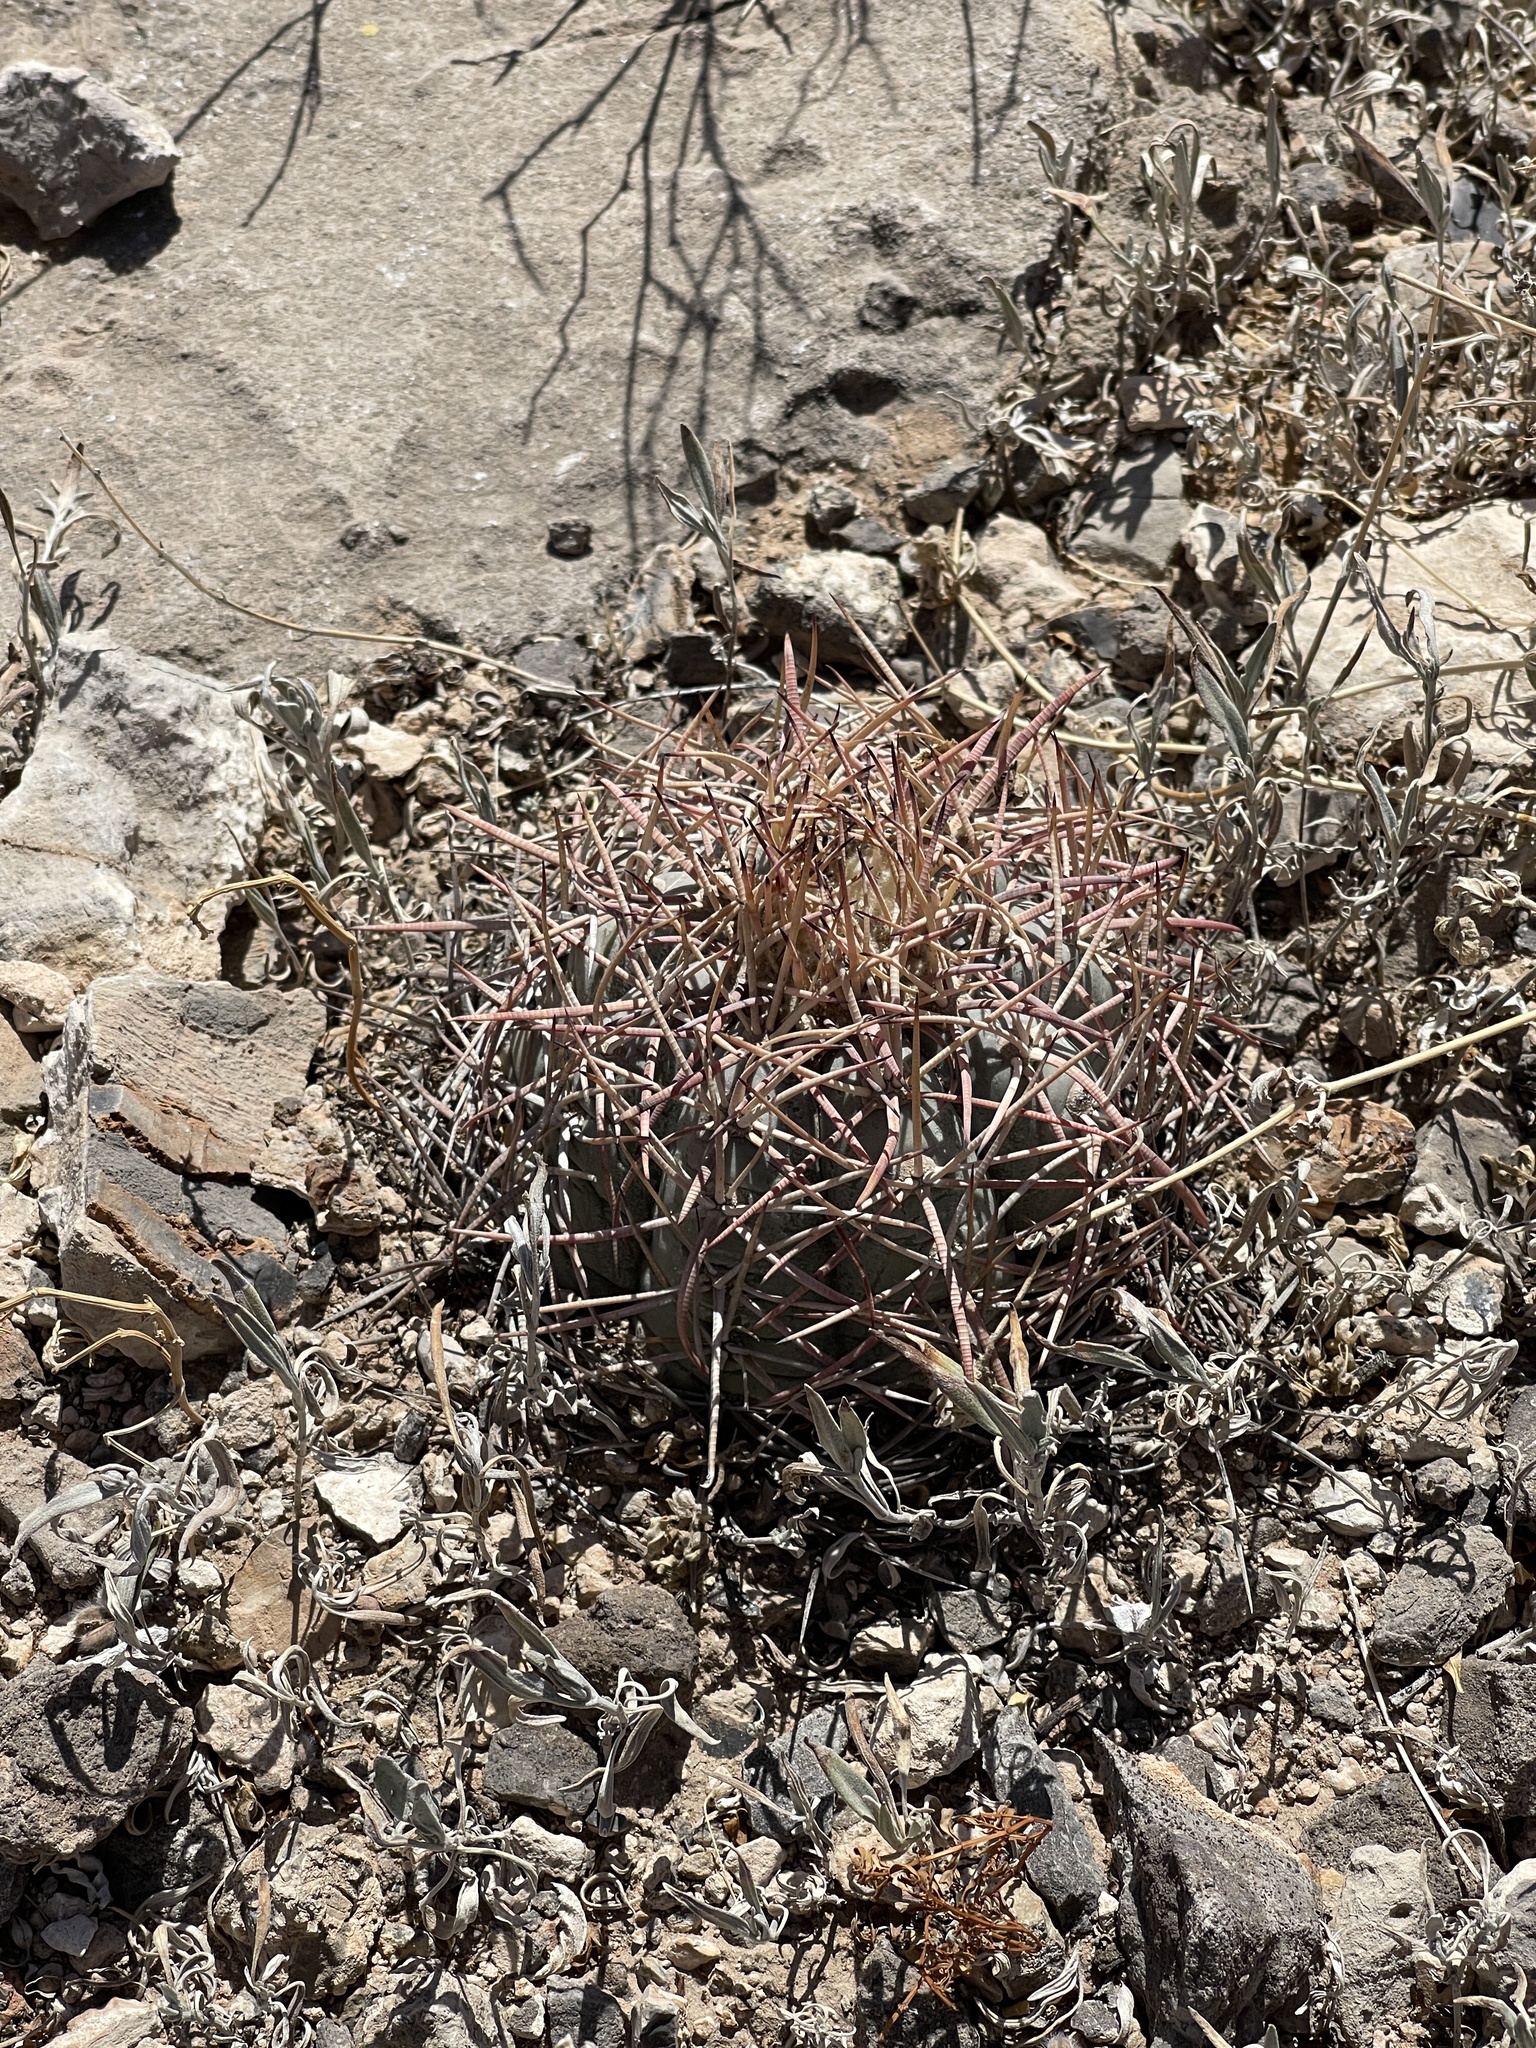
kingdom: Plantae
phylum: Tracheophyta
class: Magnoliopsida
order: Caryophyllales
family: Cactaceae
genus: Echinocactus
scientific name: Echinocactus horizonthalonius
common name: Devilshead
